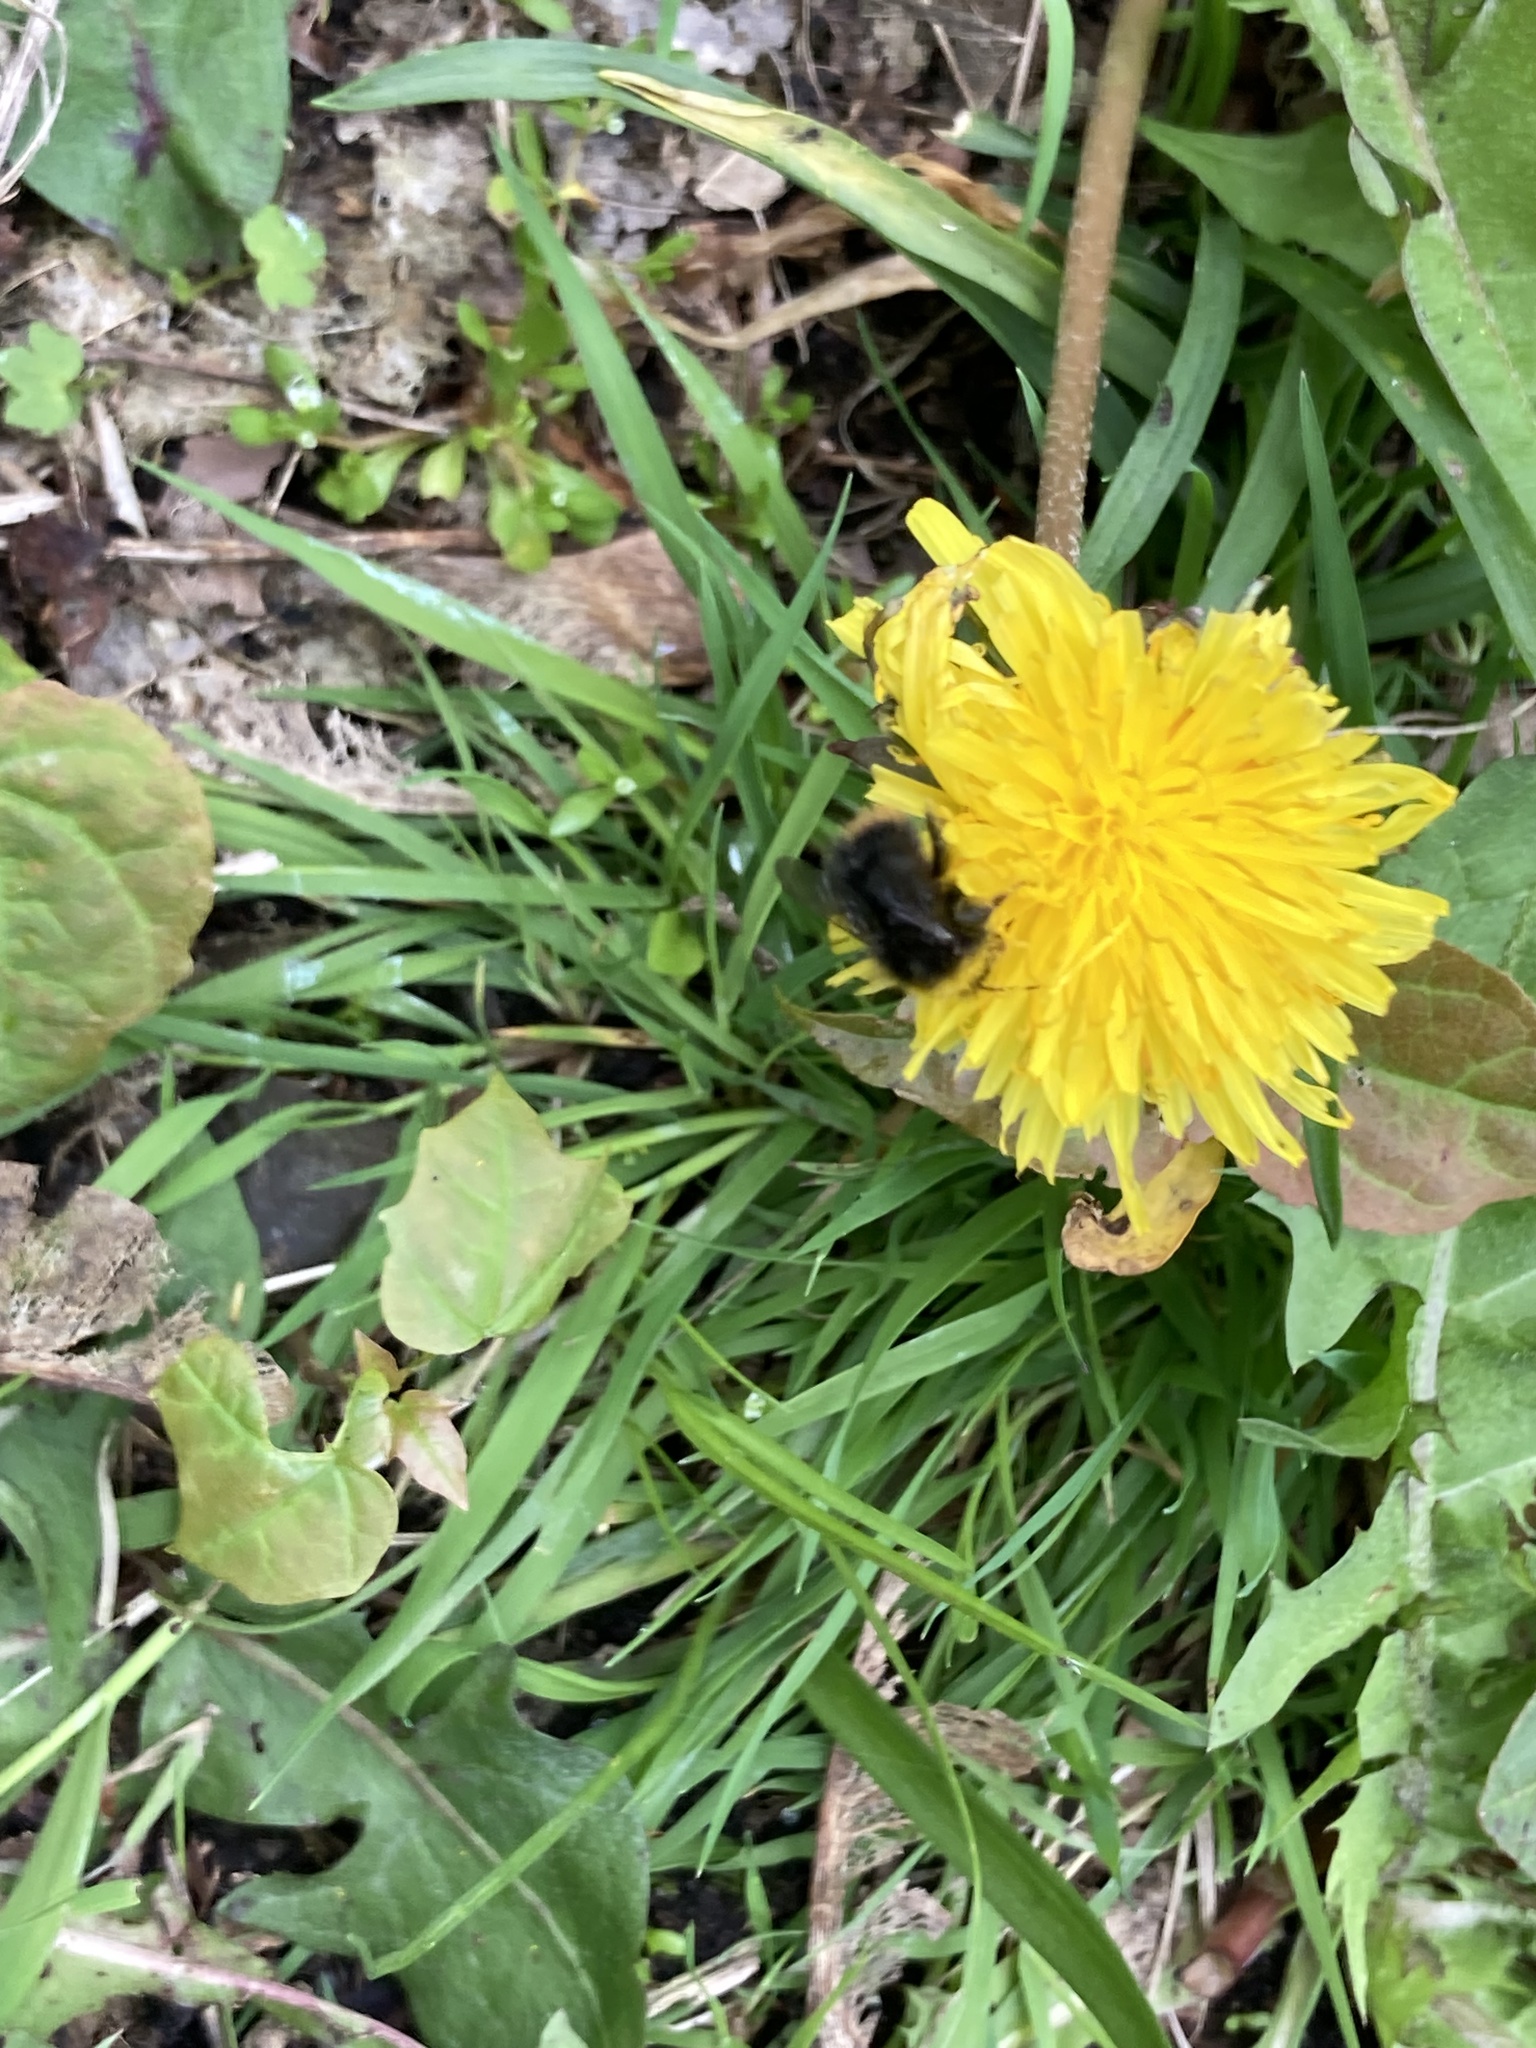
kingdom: Animalia
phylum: Arthropoda
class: Insecta
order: Hymenoptera
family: Apidae
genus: Bombus
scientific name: Bombus pratorum
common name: Early humble-bee
